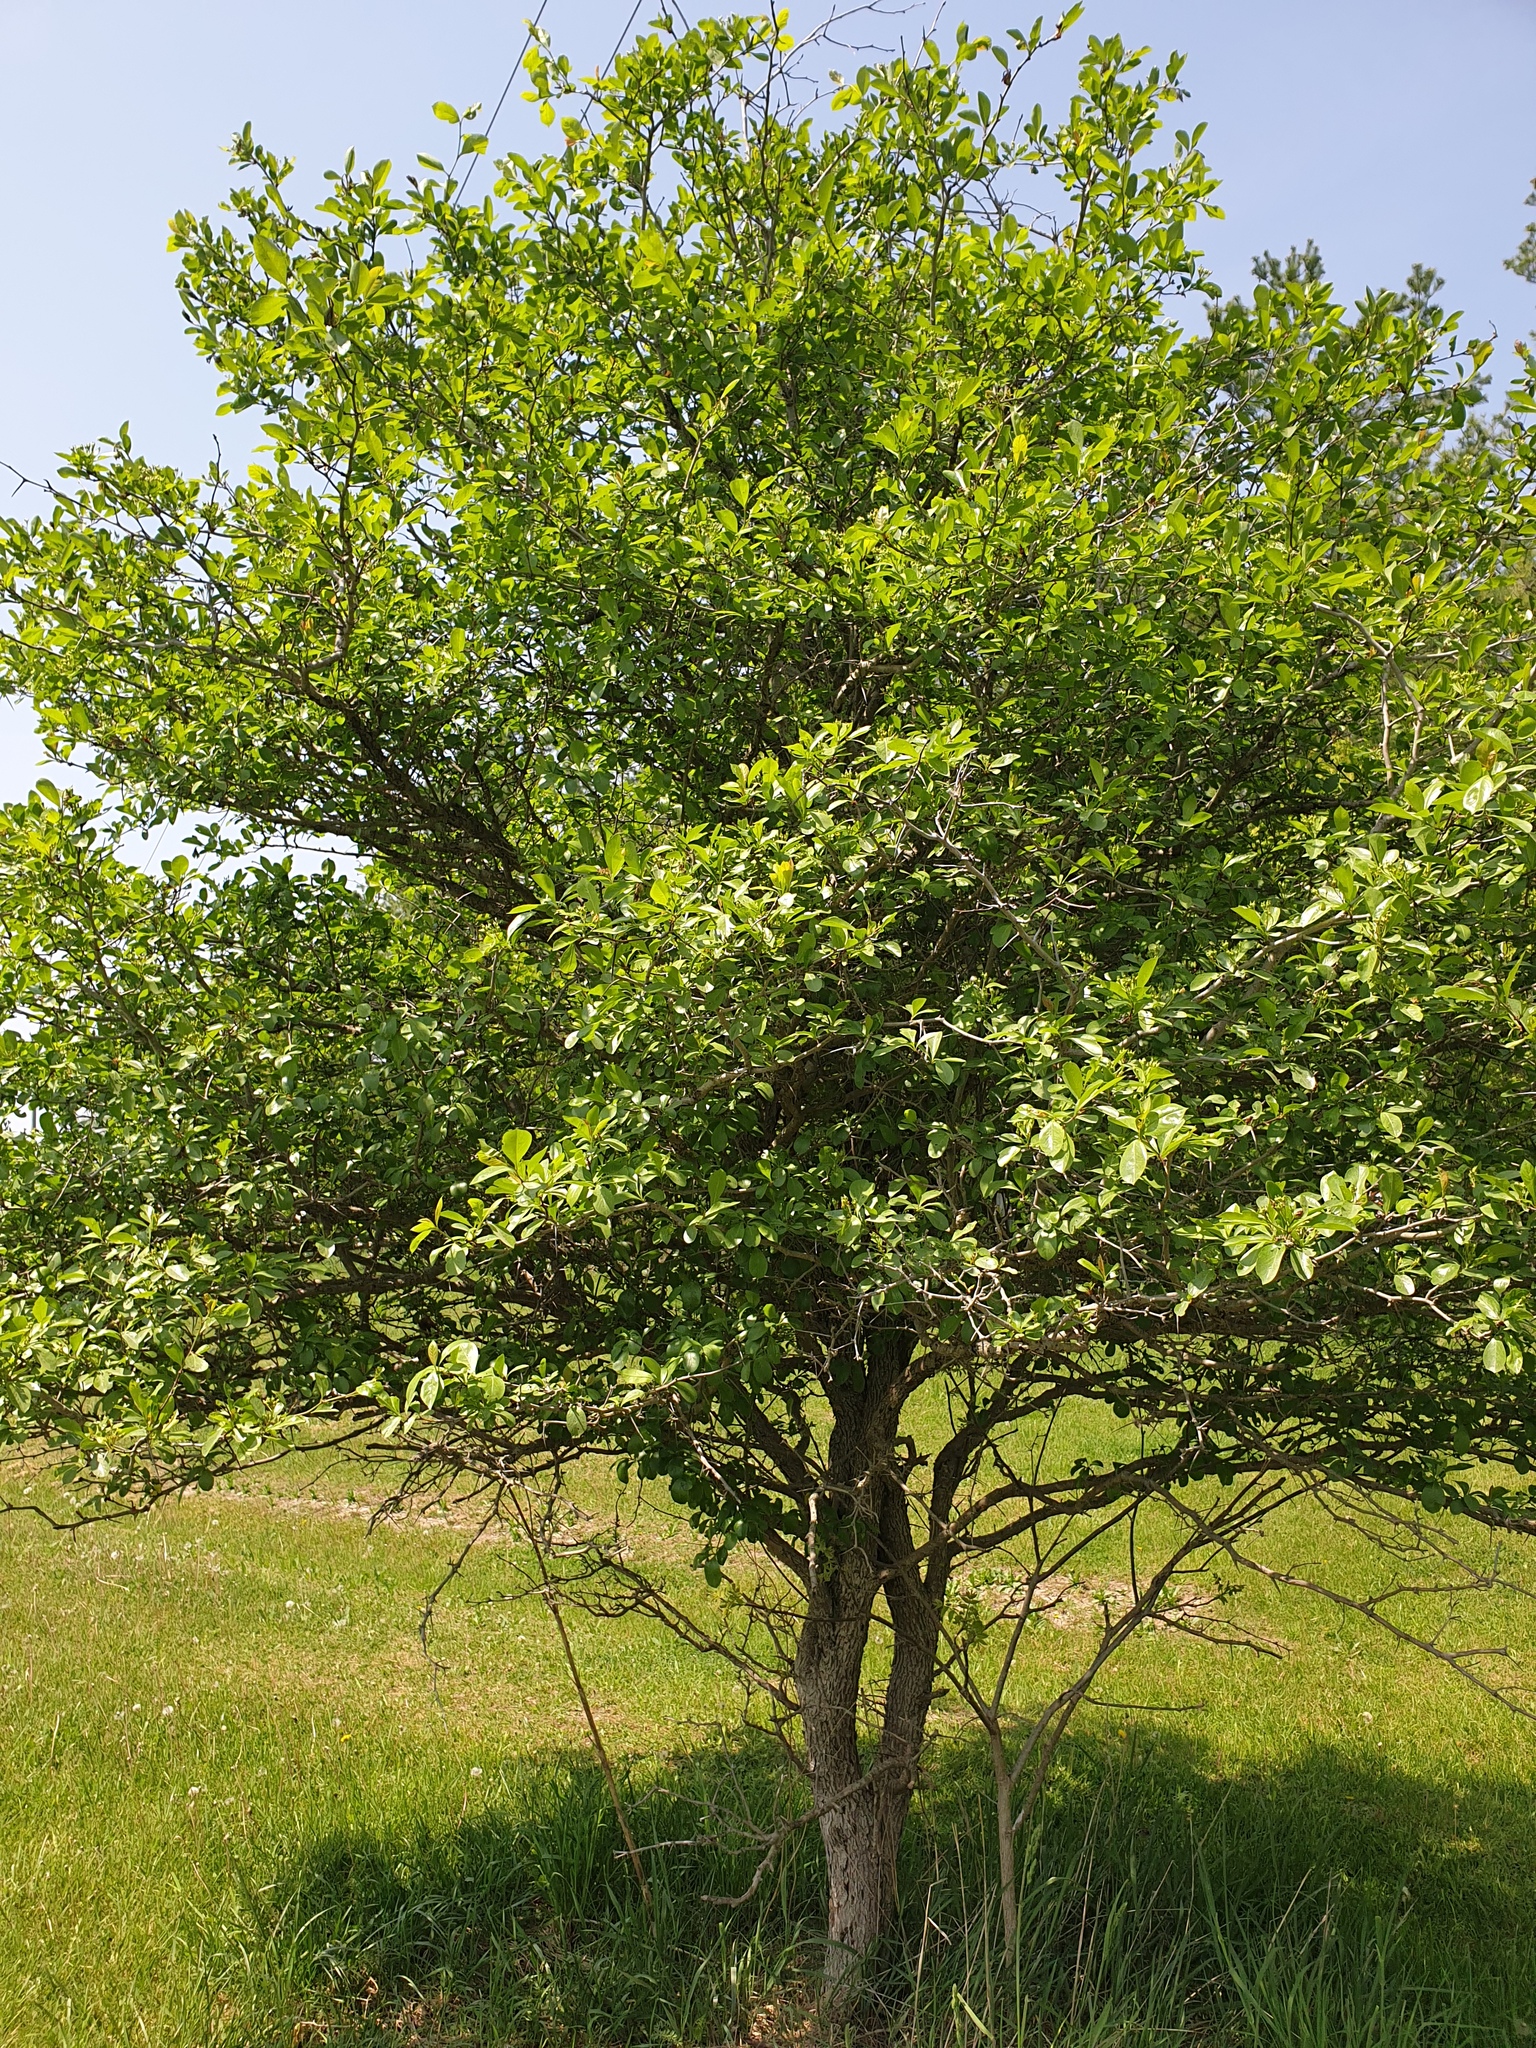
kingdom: Plantae
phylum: Tracheophyta
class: Magnoliopsida
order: Rosales
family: Rosaceae
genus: Crataegus
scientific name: Crataegus crus-galli
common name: Cockspurthorn
